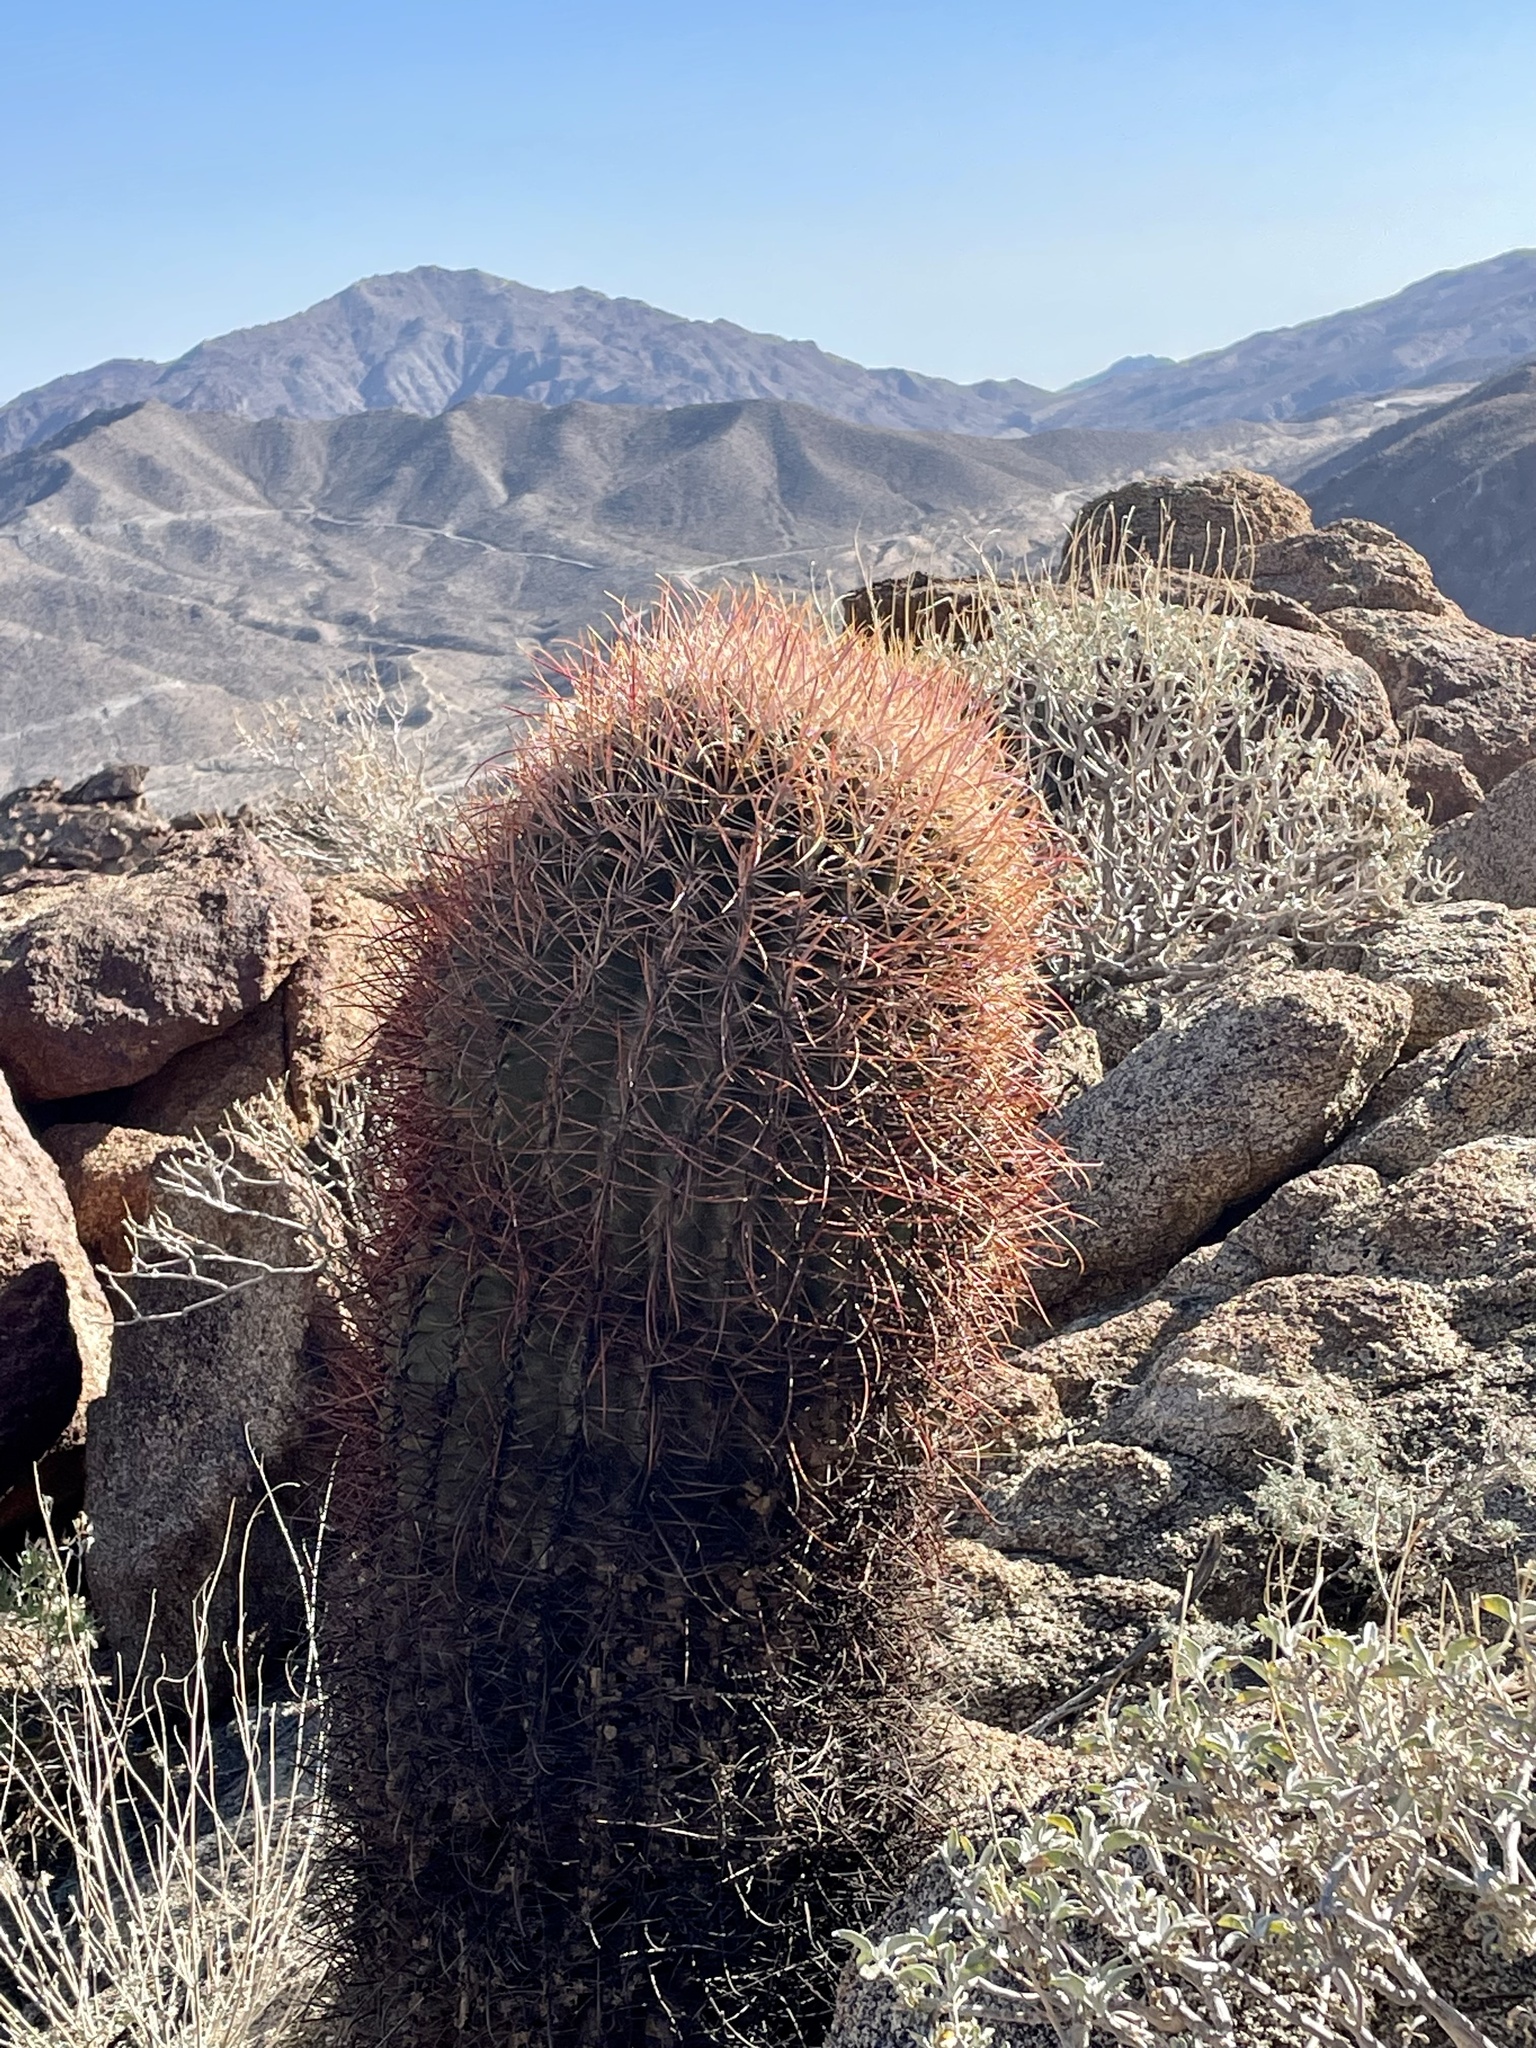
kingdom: Plantae
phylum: Tracheophyta
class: Magnoliopsida
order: Caryophyllales
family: Cactaceae
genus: Ferocactus
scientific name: Ferocactus cylindraceus
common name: California barrel cactus
